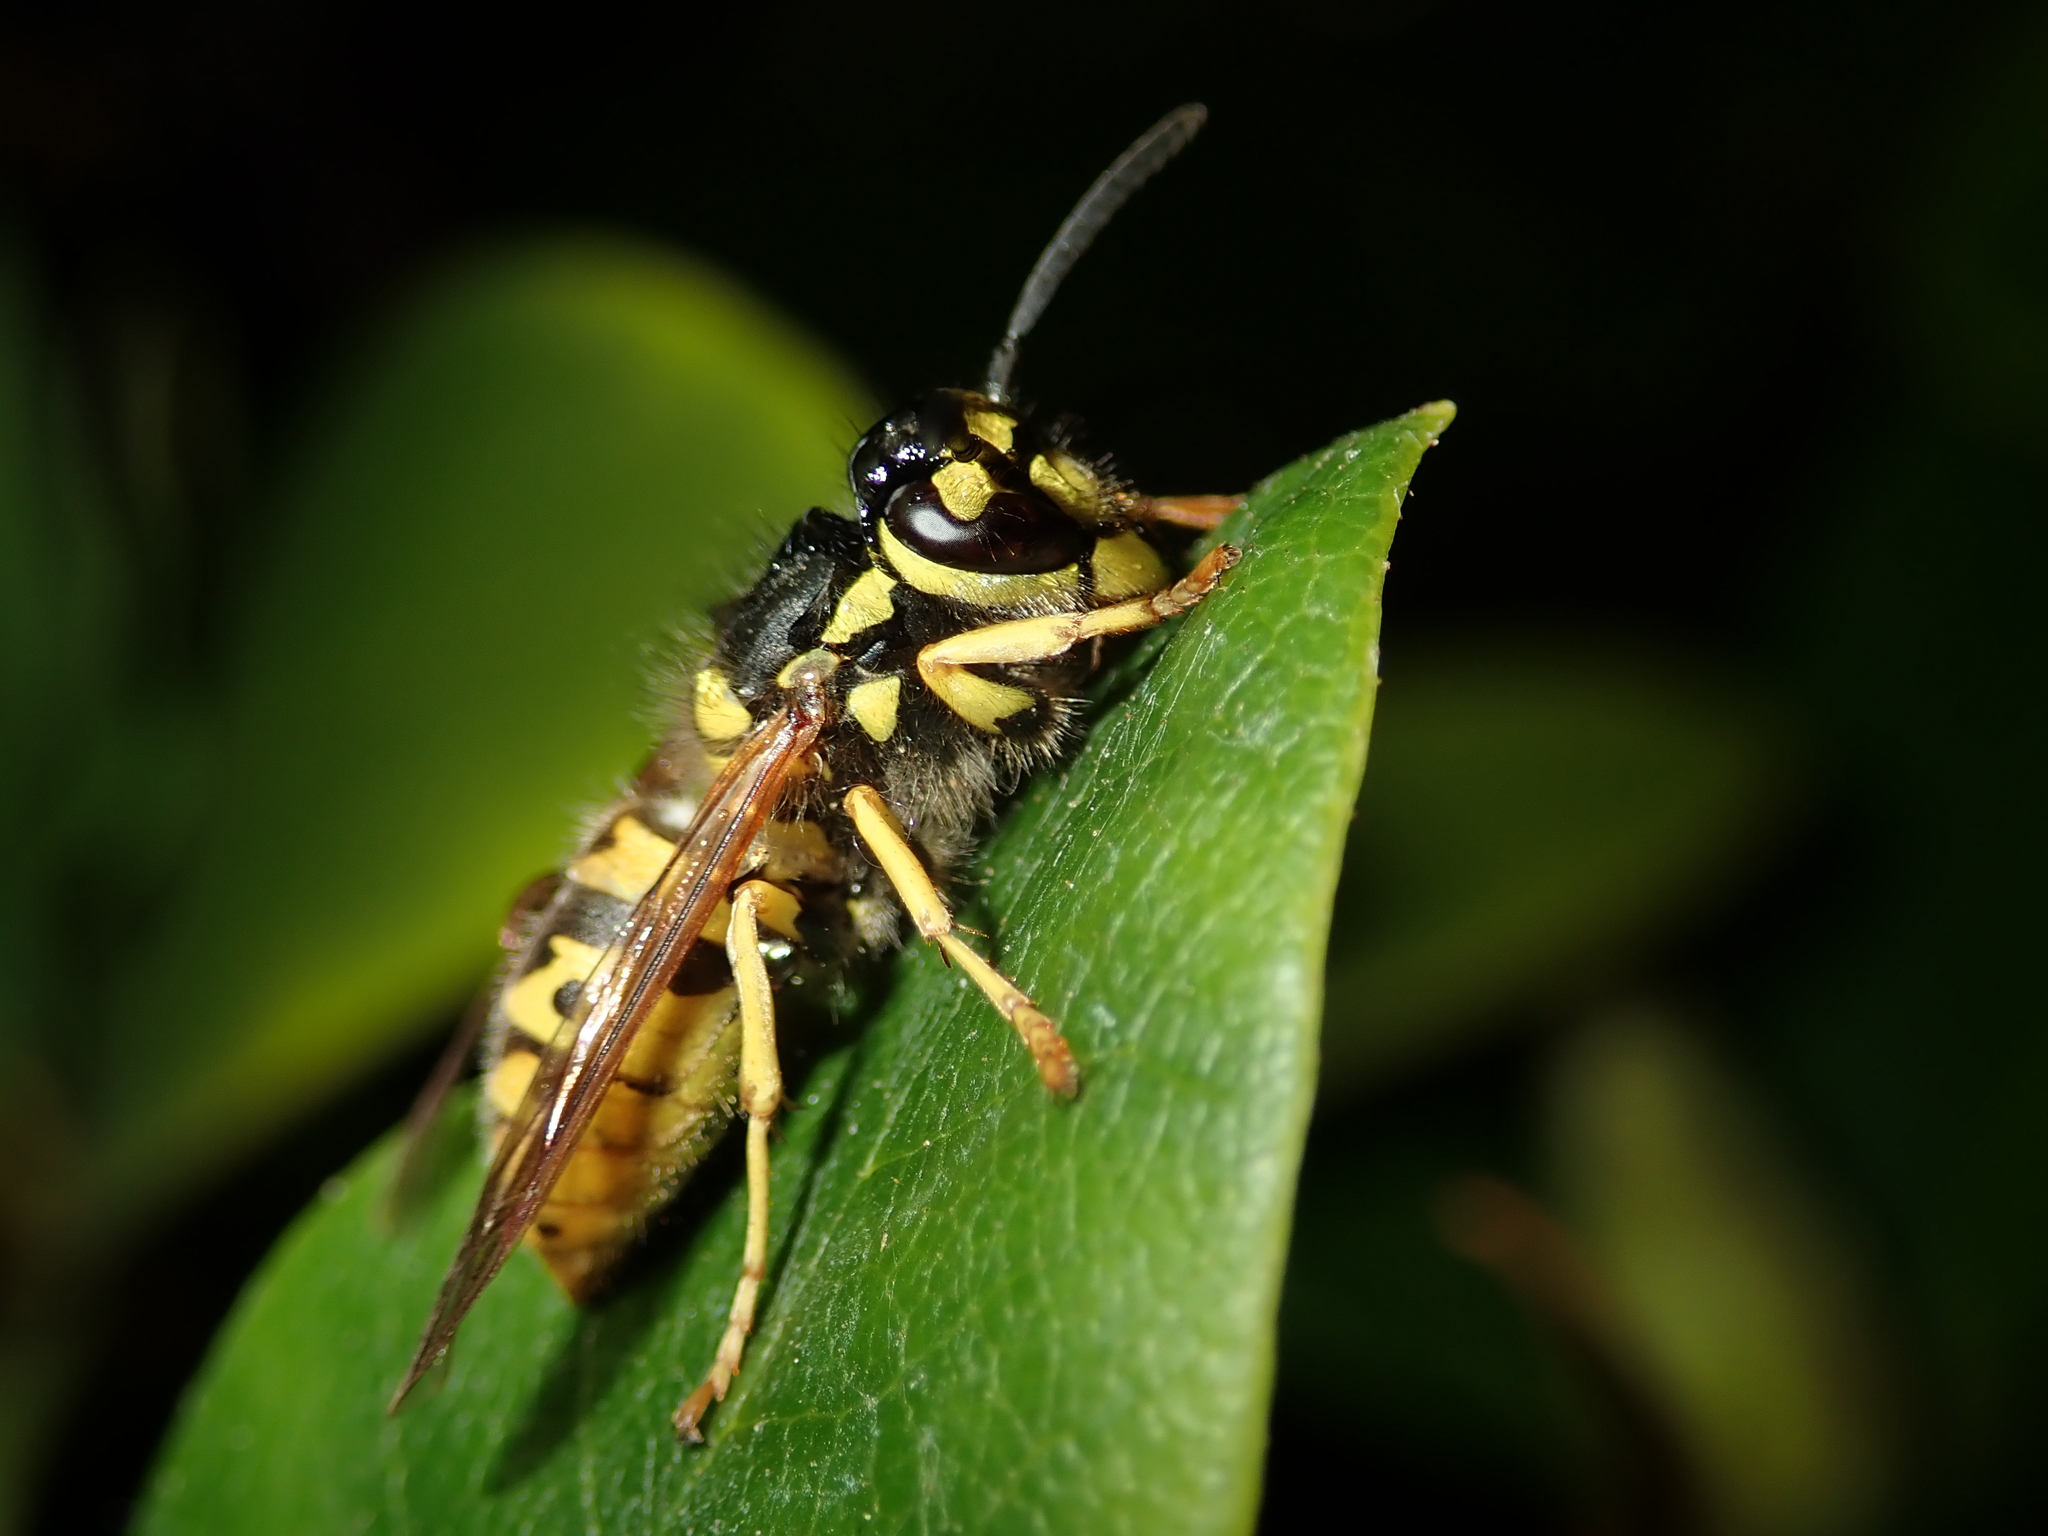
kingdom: Animalia
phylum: Arthropoda
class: Insecta
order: Hymenoptera
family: Vespidae
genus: Vespula
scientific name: Vespula germanica
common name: German wasp
